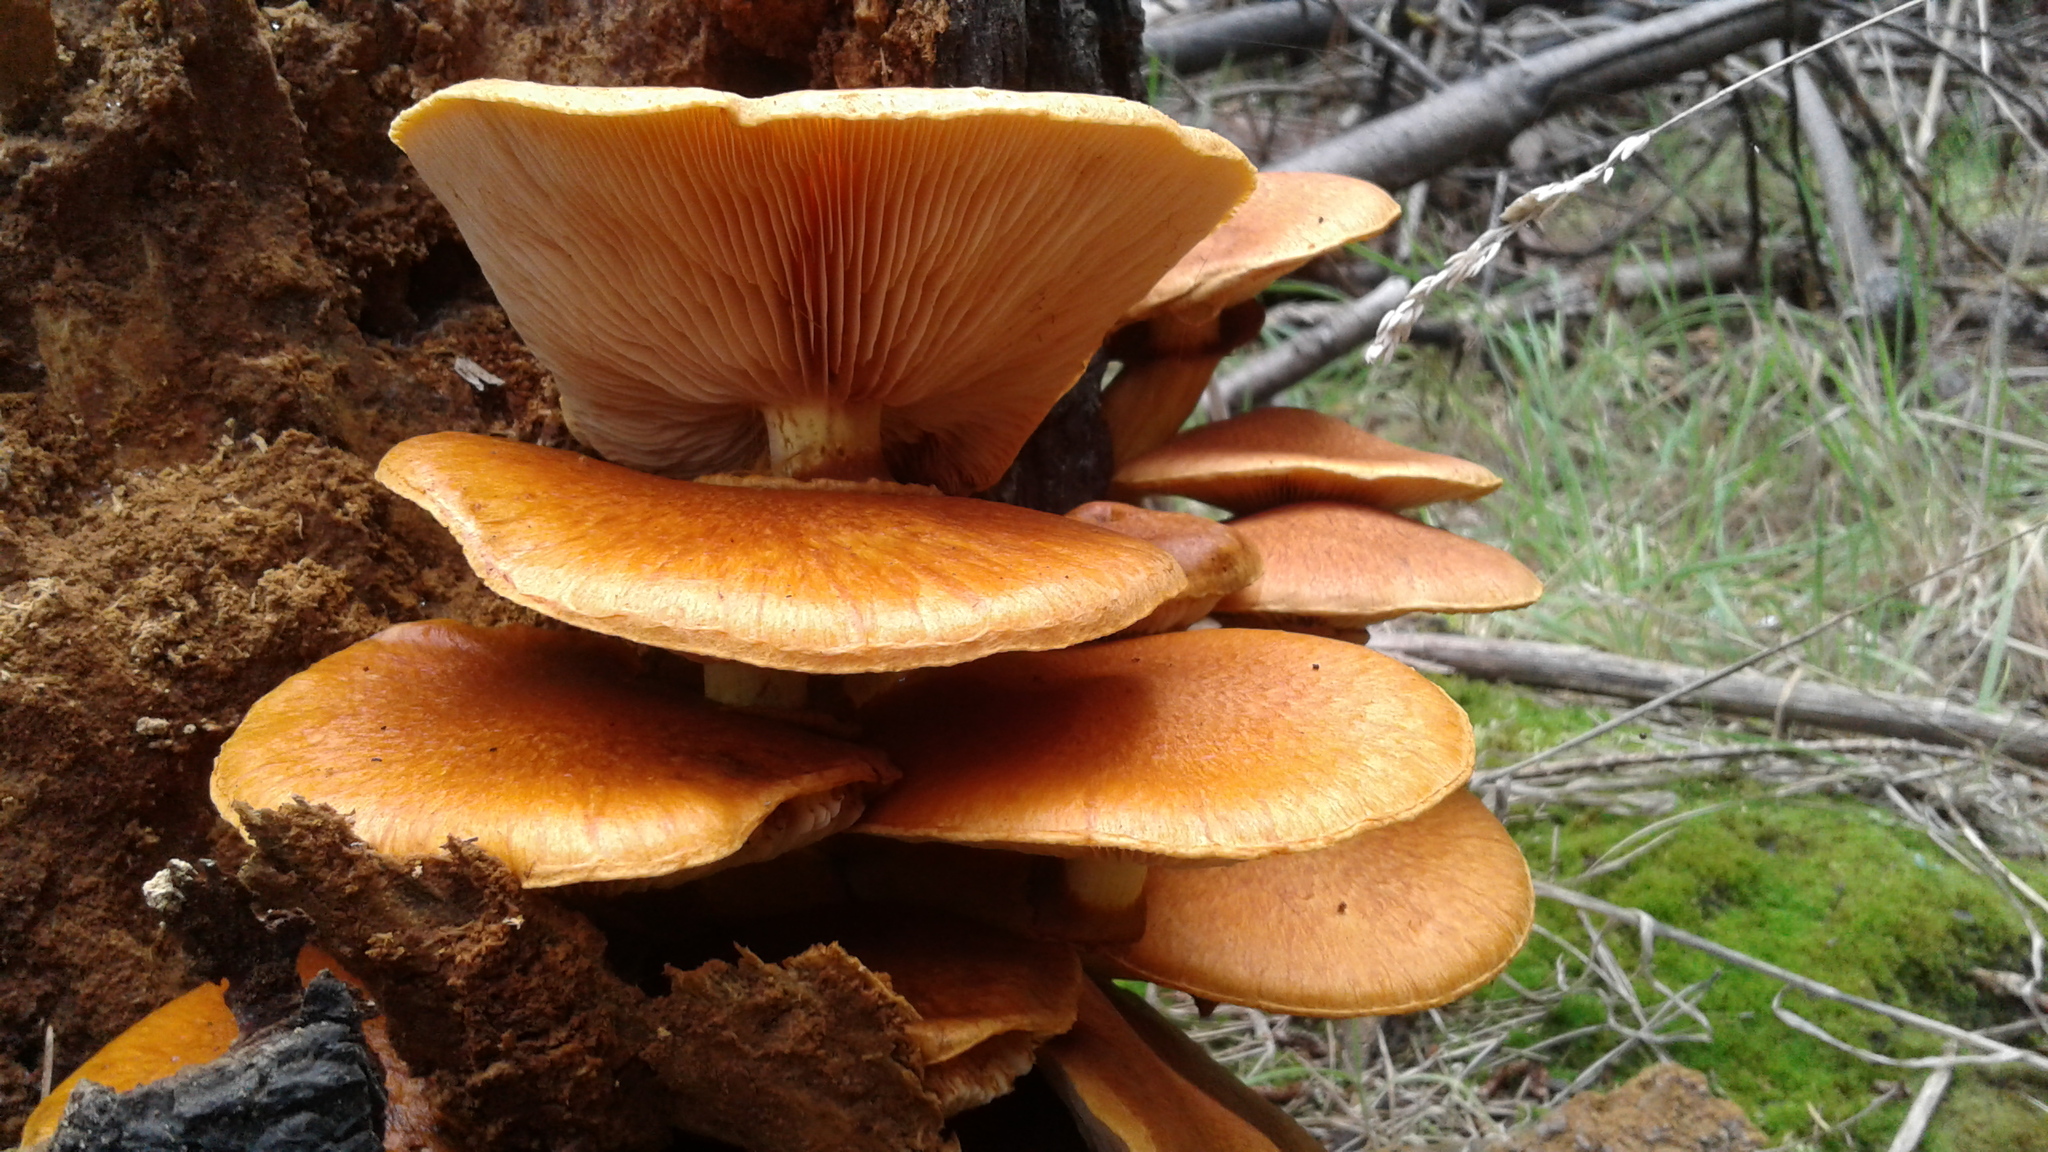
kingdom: Fungi
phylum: Basidiomycota
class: Agaricomycetes
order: Agaricales
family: Hymenogastraceae
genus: Gymnopilus
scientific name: Gymnopilus junonius
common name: Spectacular rustgill
